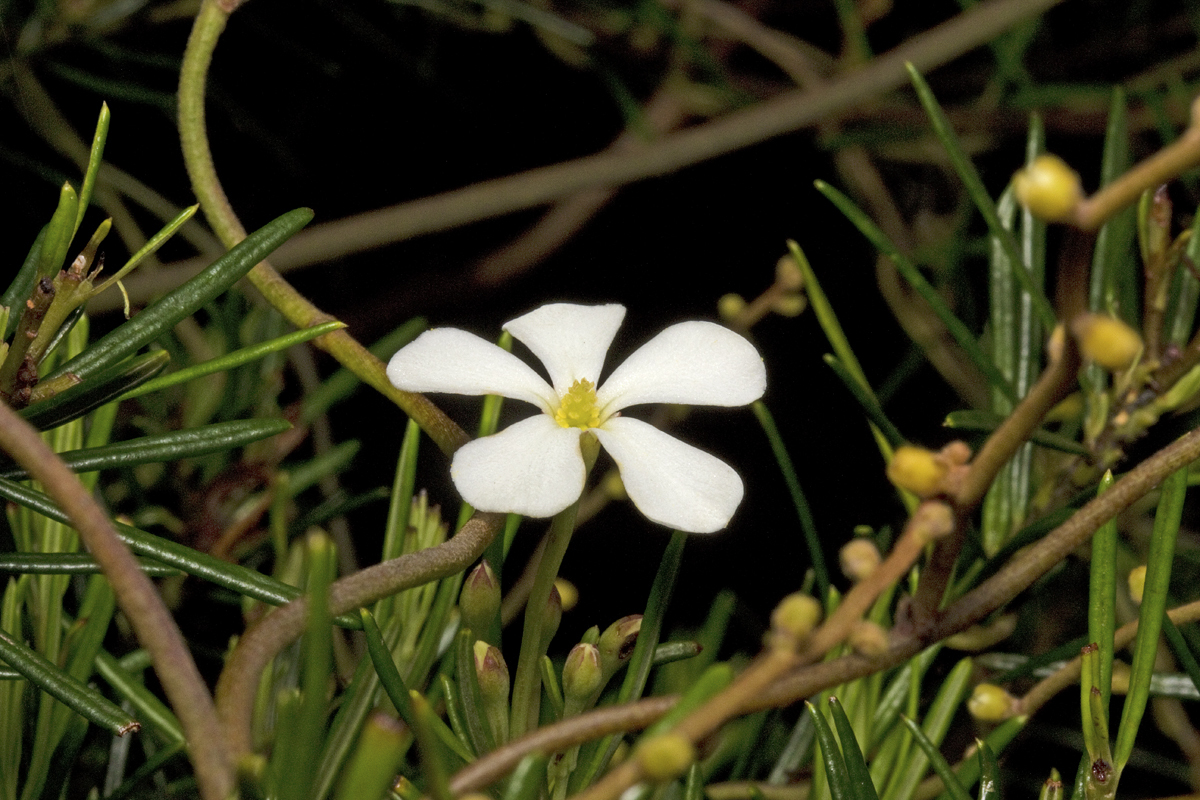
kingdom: Plantae
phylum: Tracheophyta
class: Magnoliopsida
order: Malpighiales
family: Euphorbiaceae
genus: Ricinocarpos
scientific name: Ricinocarpos pinifolius
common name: Weddingbush
